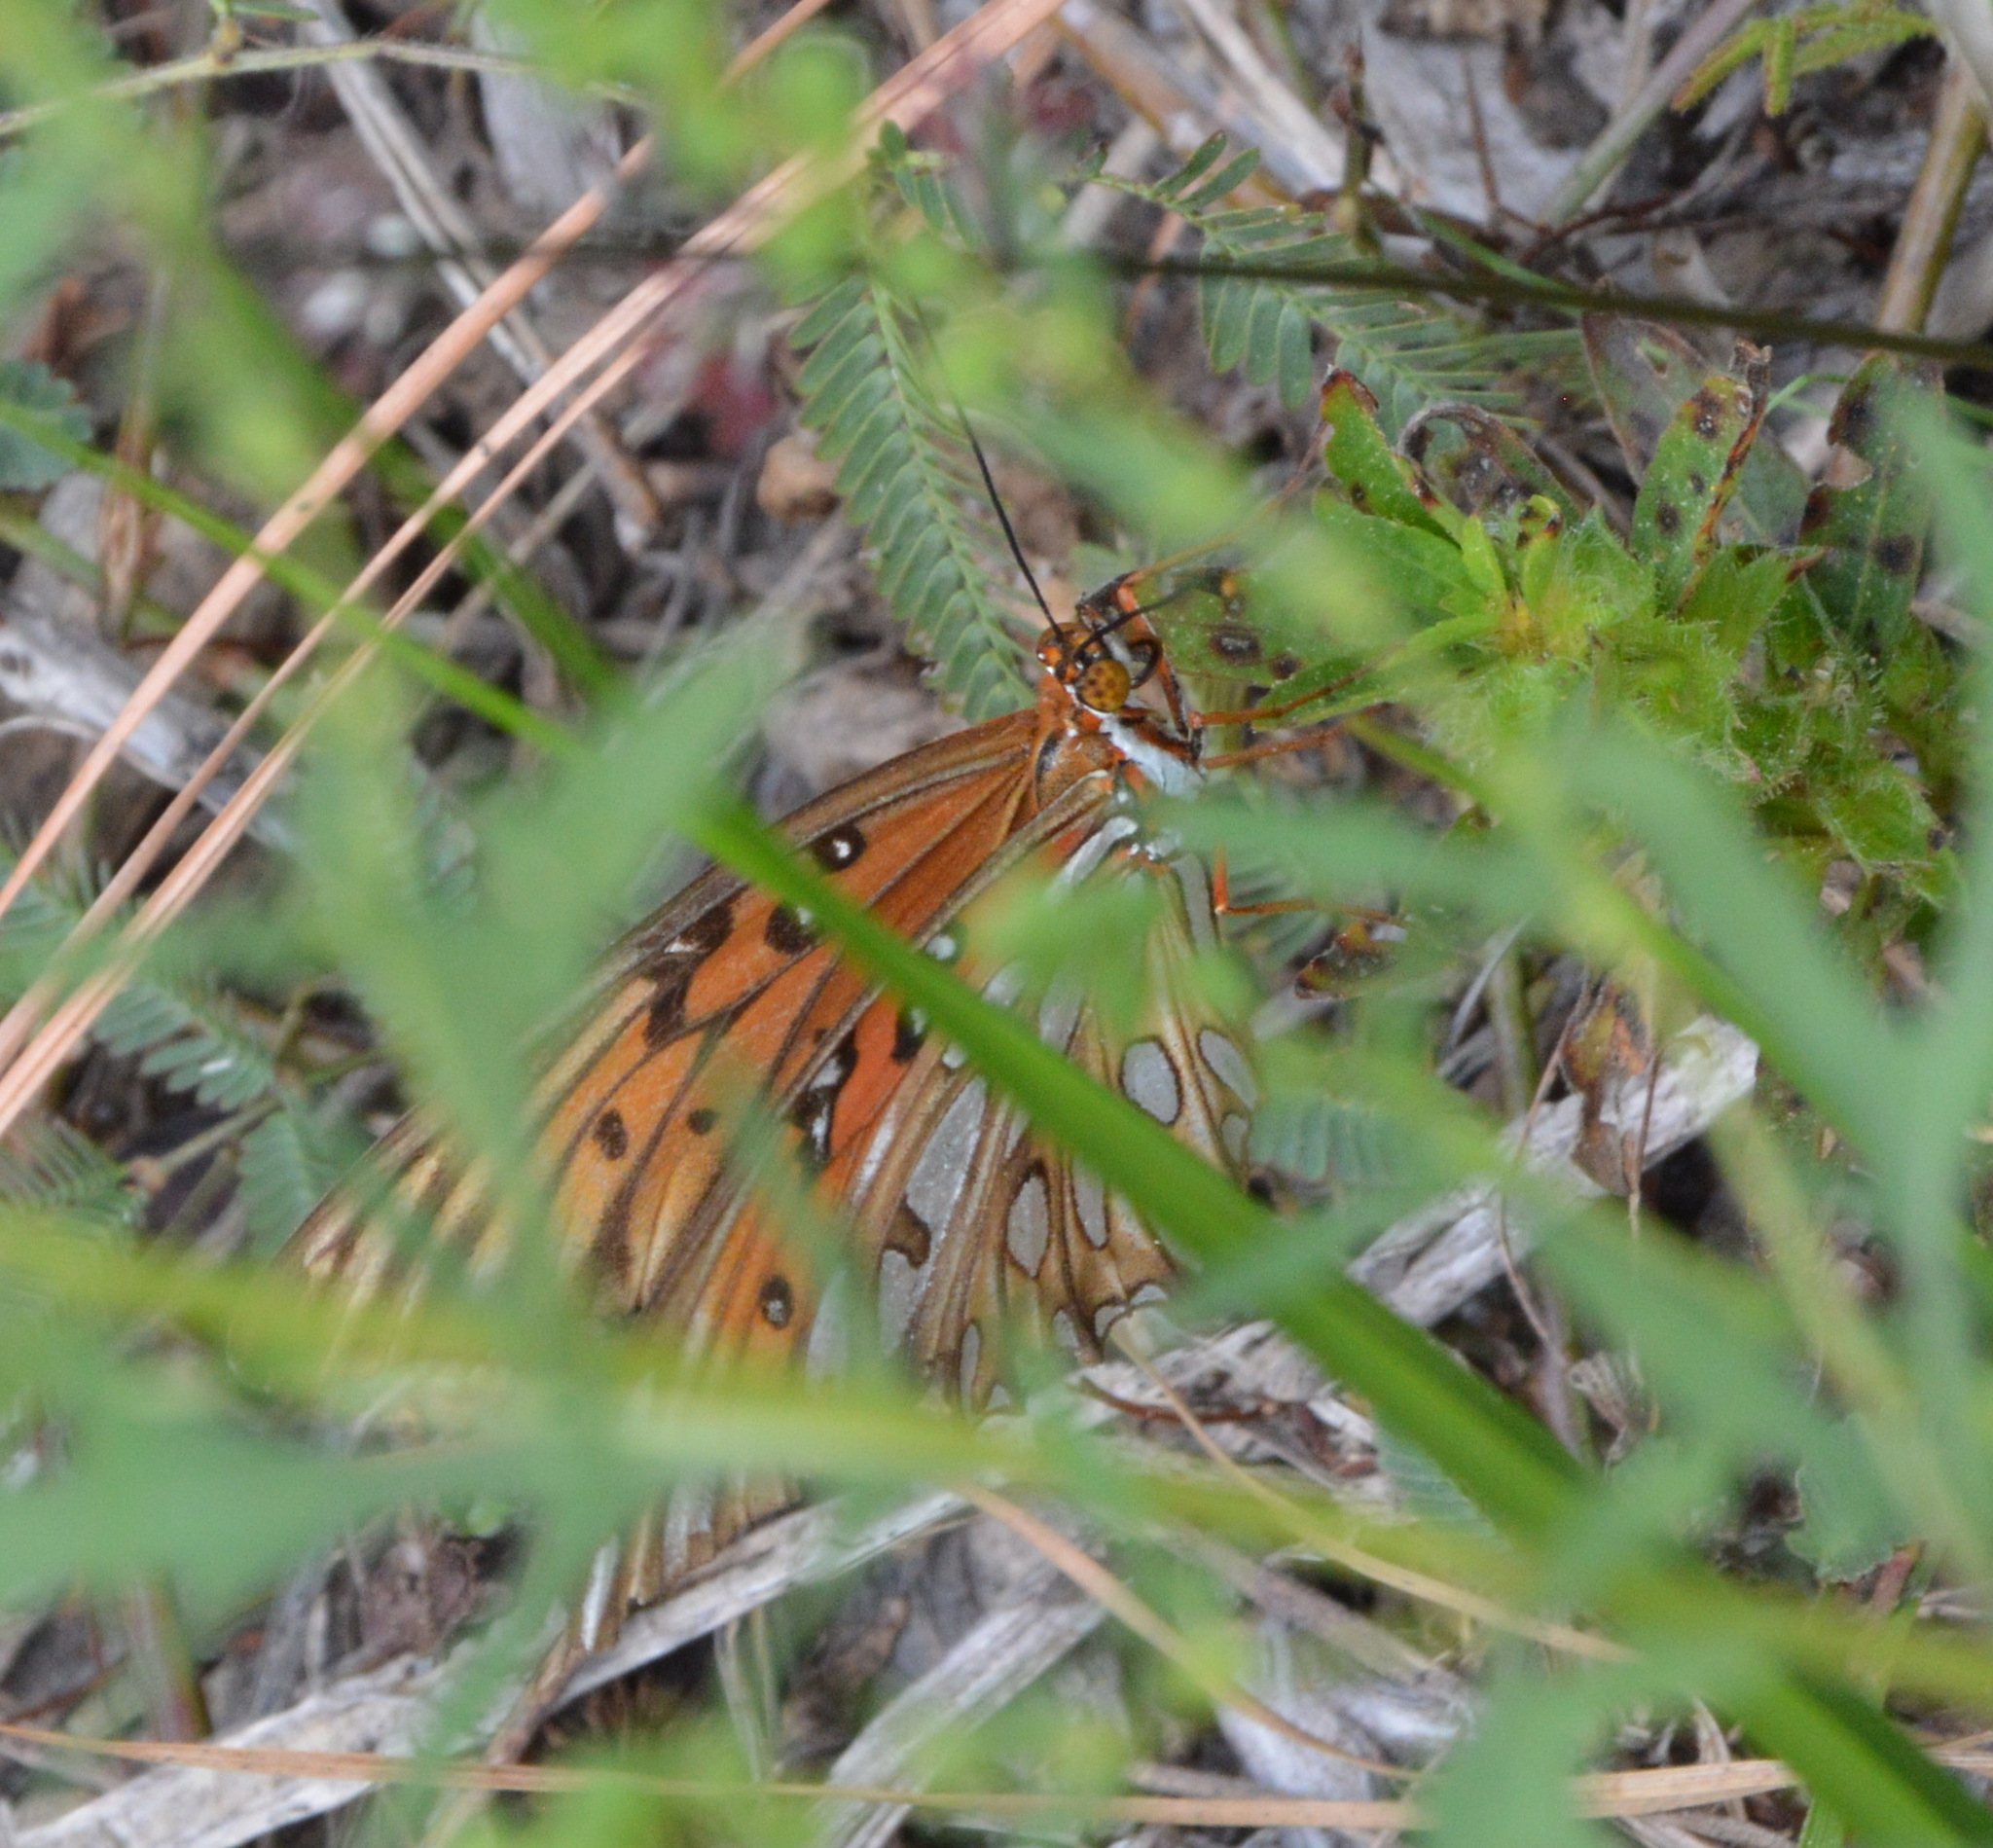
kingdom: Animalia
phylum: Arthropoda
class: Insecta
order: Lepidoptera
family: Nymphalidae
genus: Dione
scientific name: Dione vanillae
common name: Gulf fritillary
